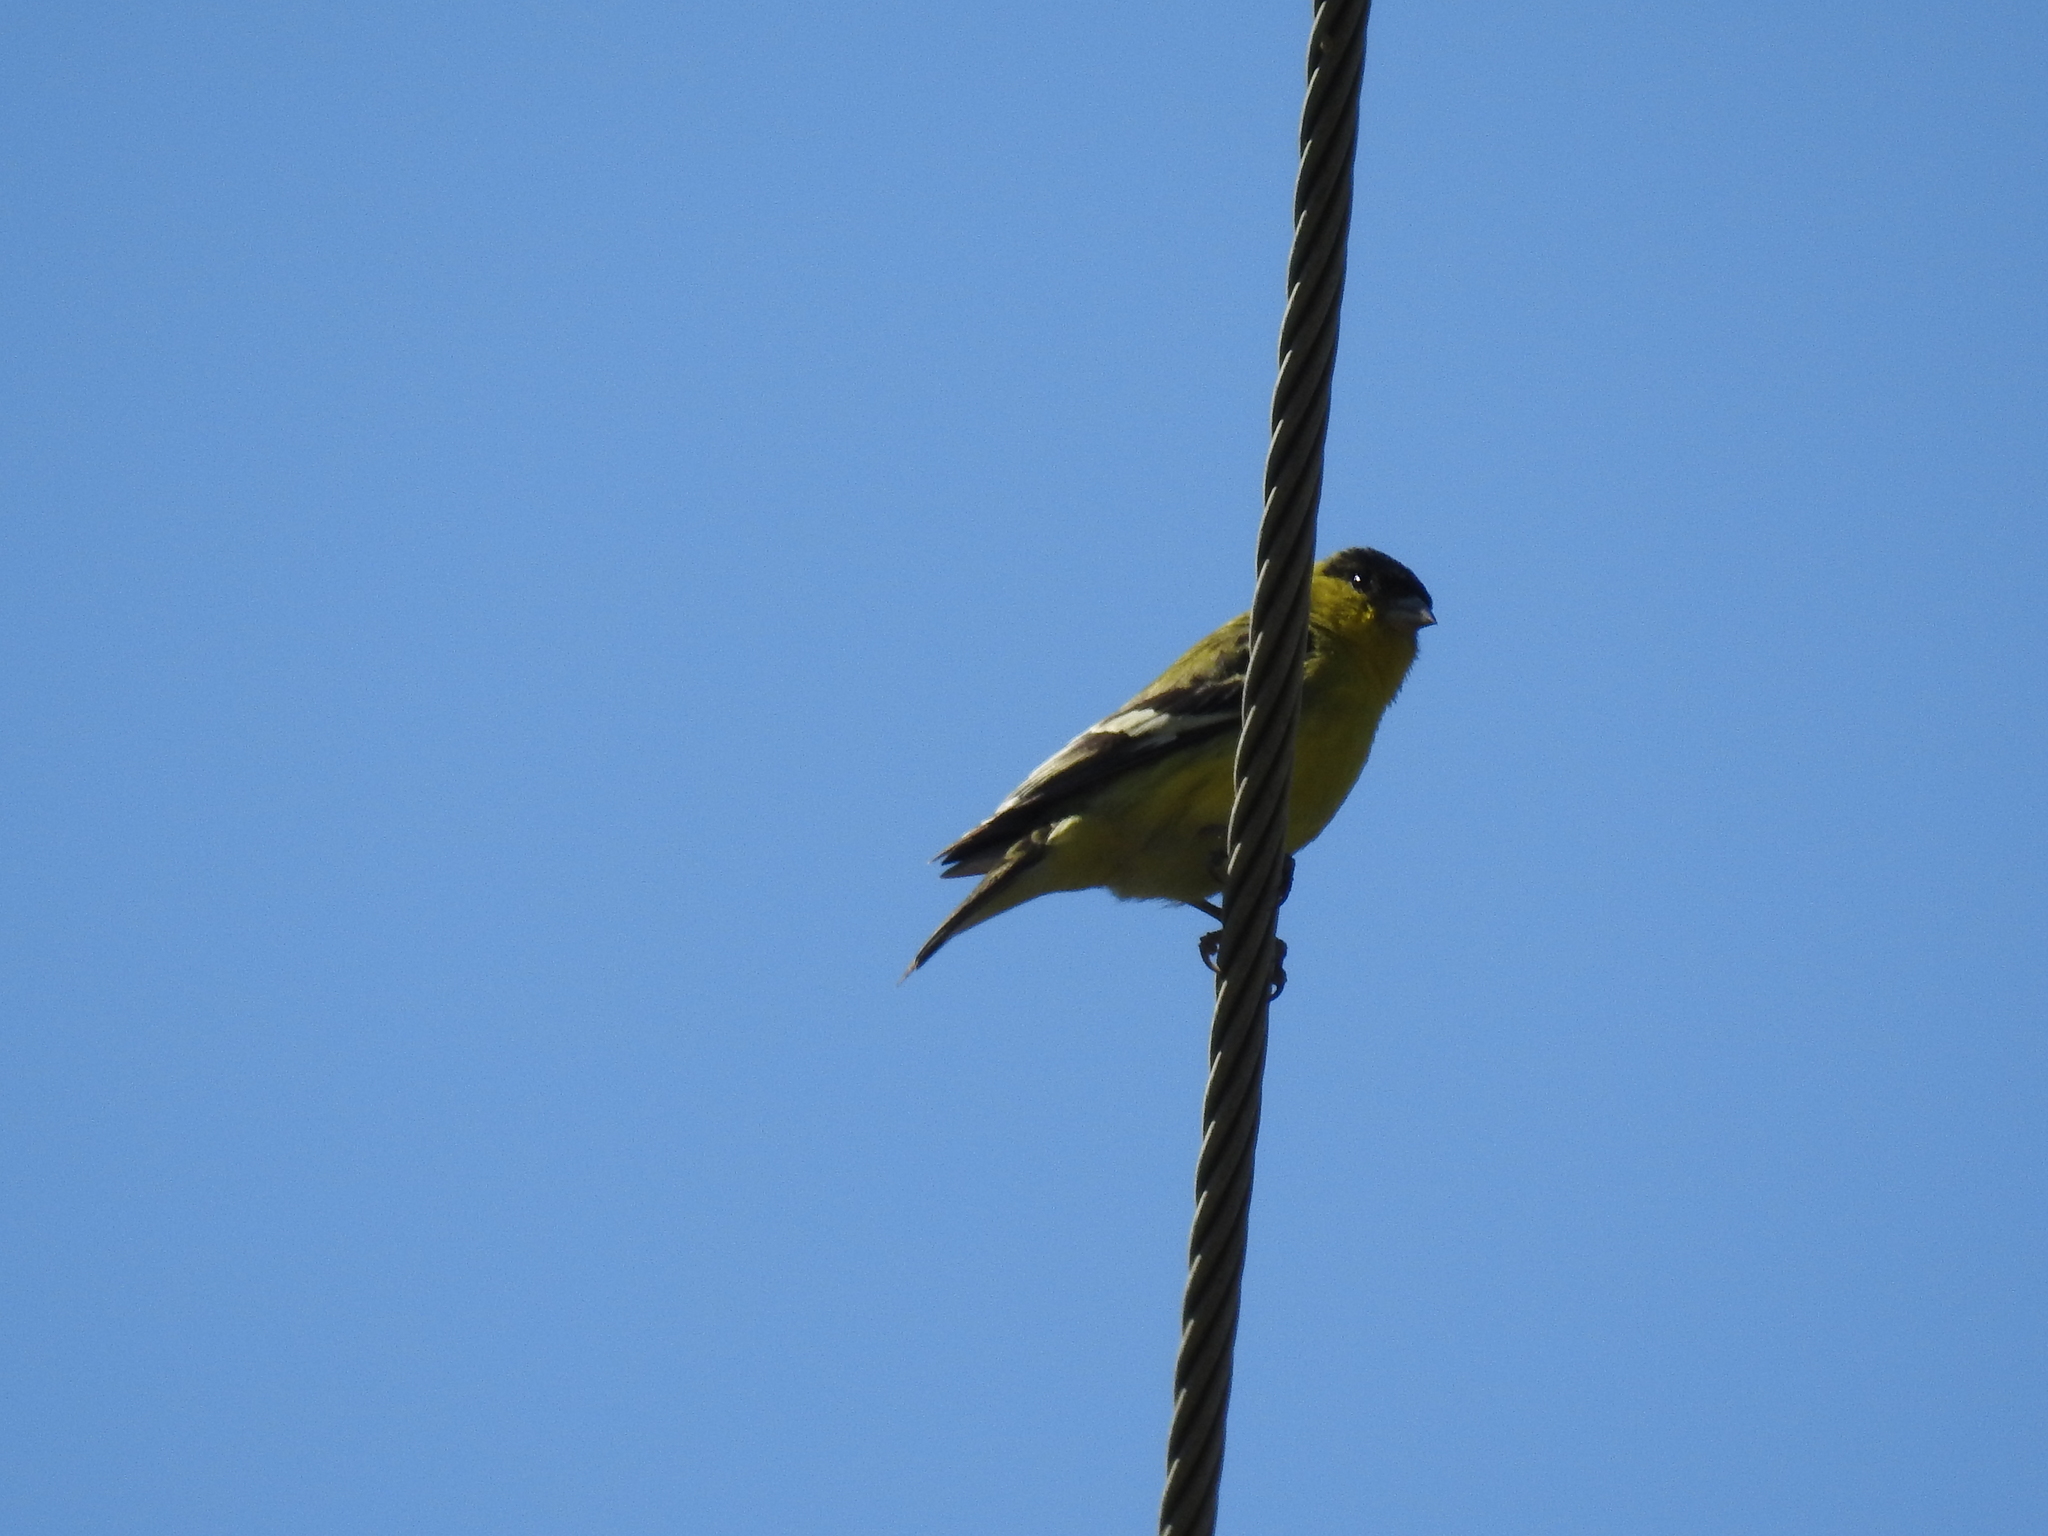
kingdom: Animalia
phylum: Chordata
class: Aves
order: Passeriformes
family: Fringillidae
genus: Spinus
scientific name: Spinus psaltria
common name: Lesser goldfinch
